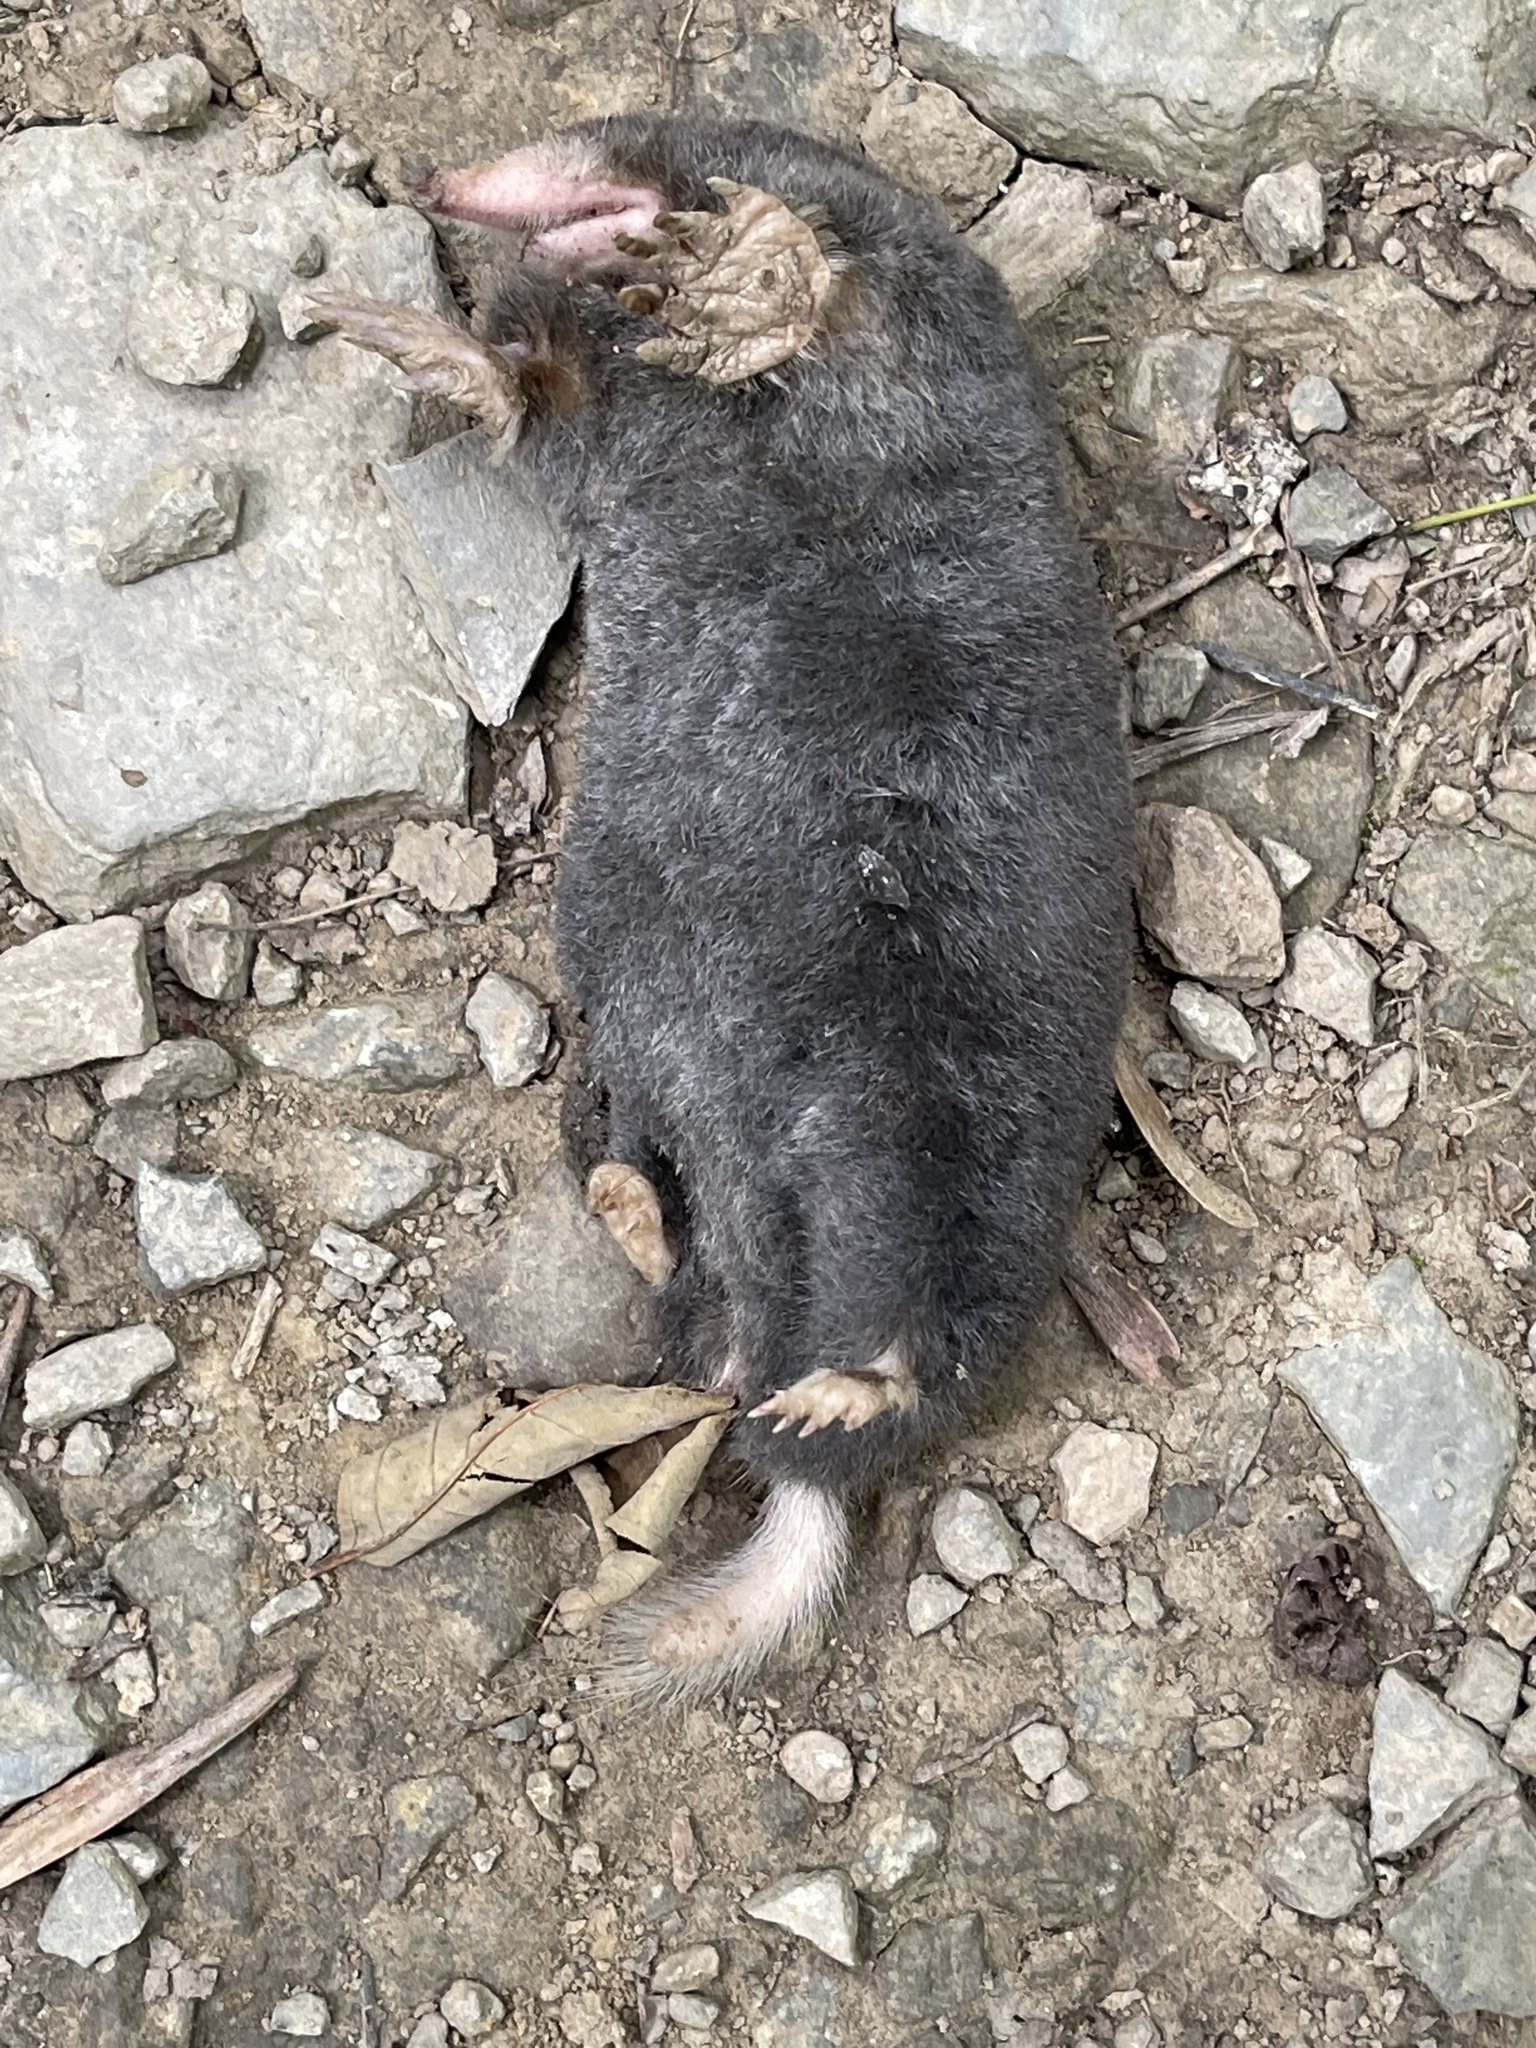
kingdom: Animalia
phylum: Chordata
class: Mammalia
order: Soricomorpha
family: Talpidae
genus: Parascalops
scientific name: Parascalops breweri
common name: Hairy-tailed mole
